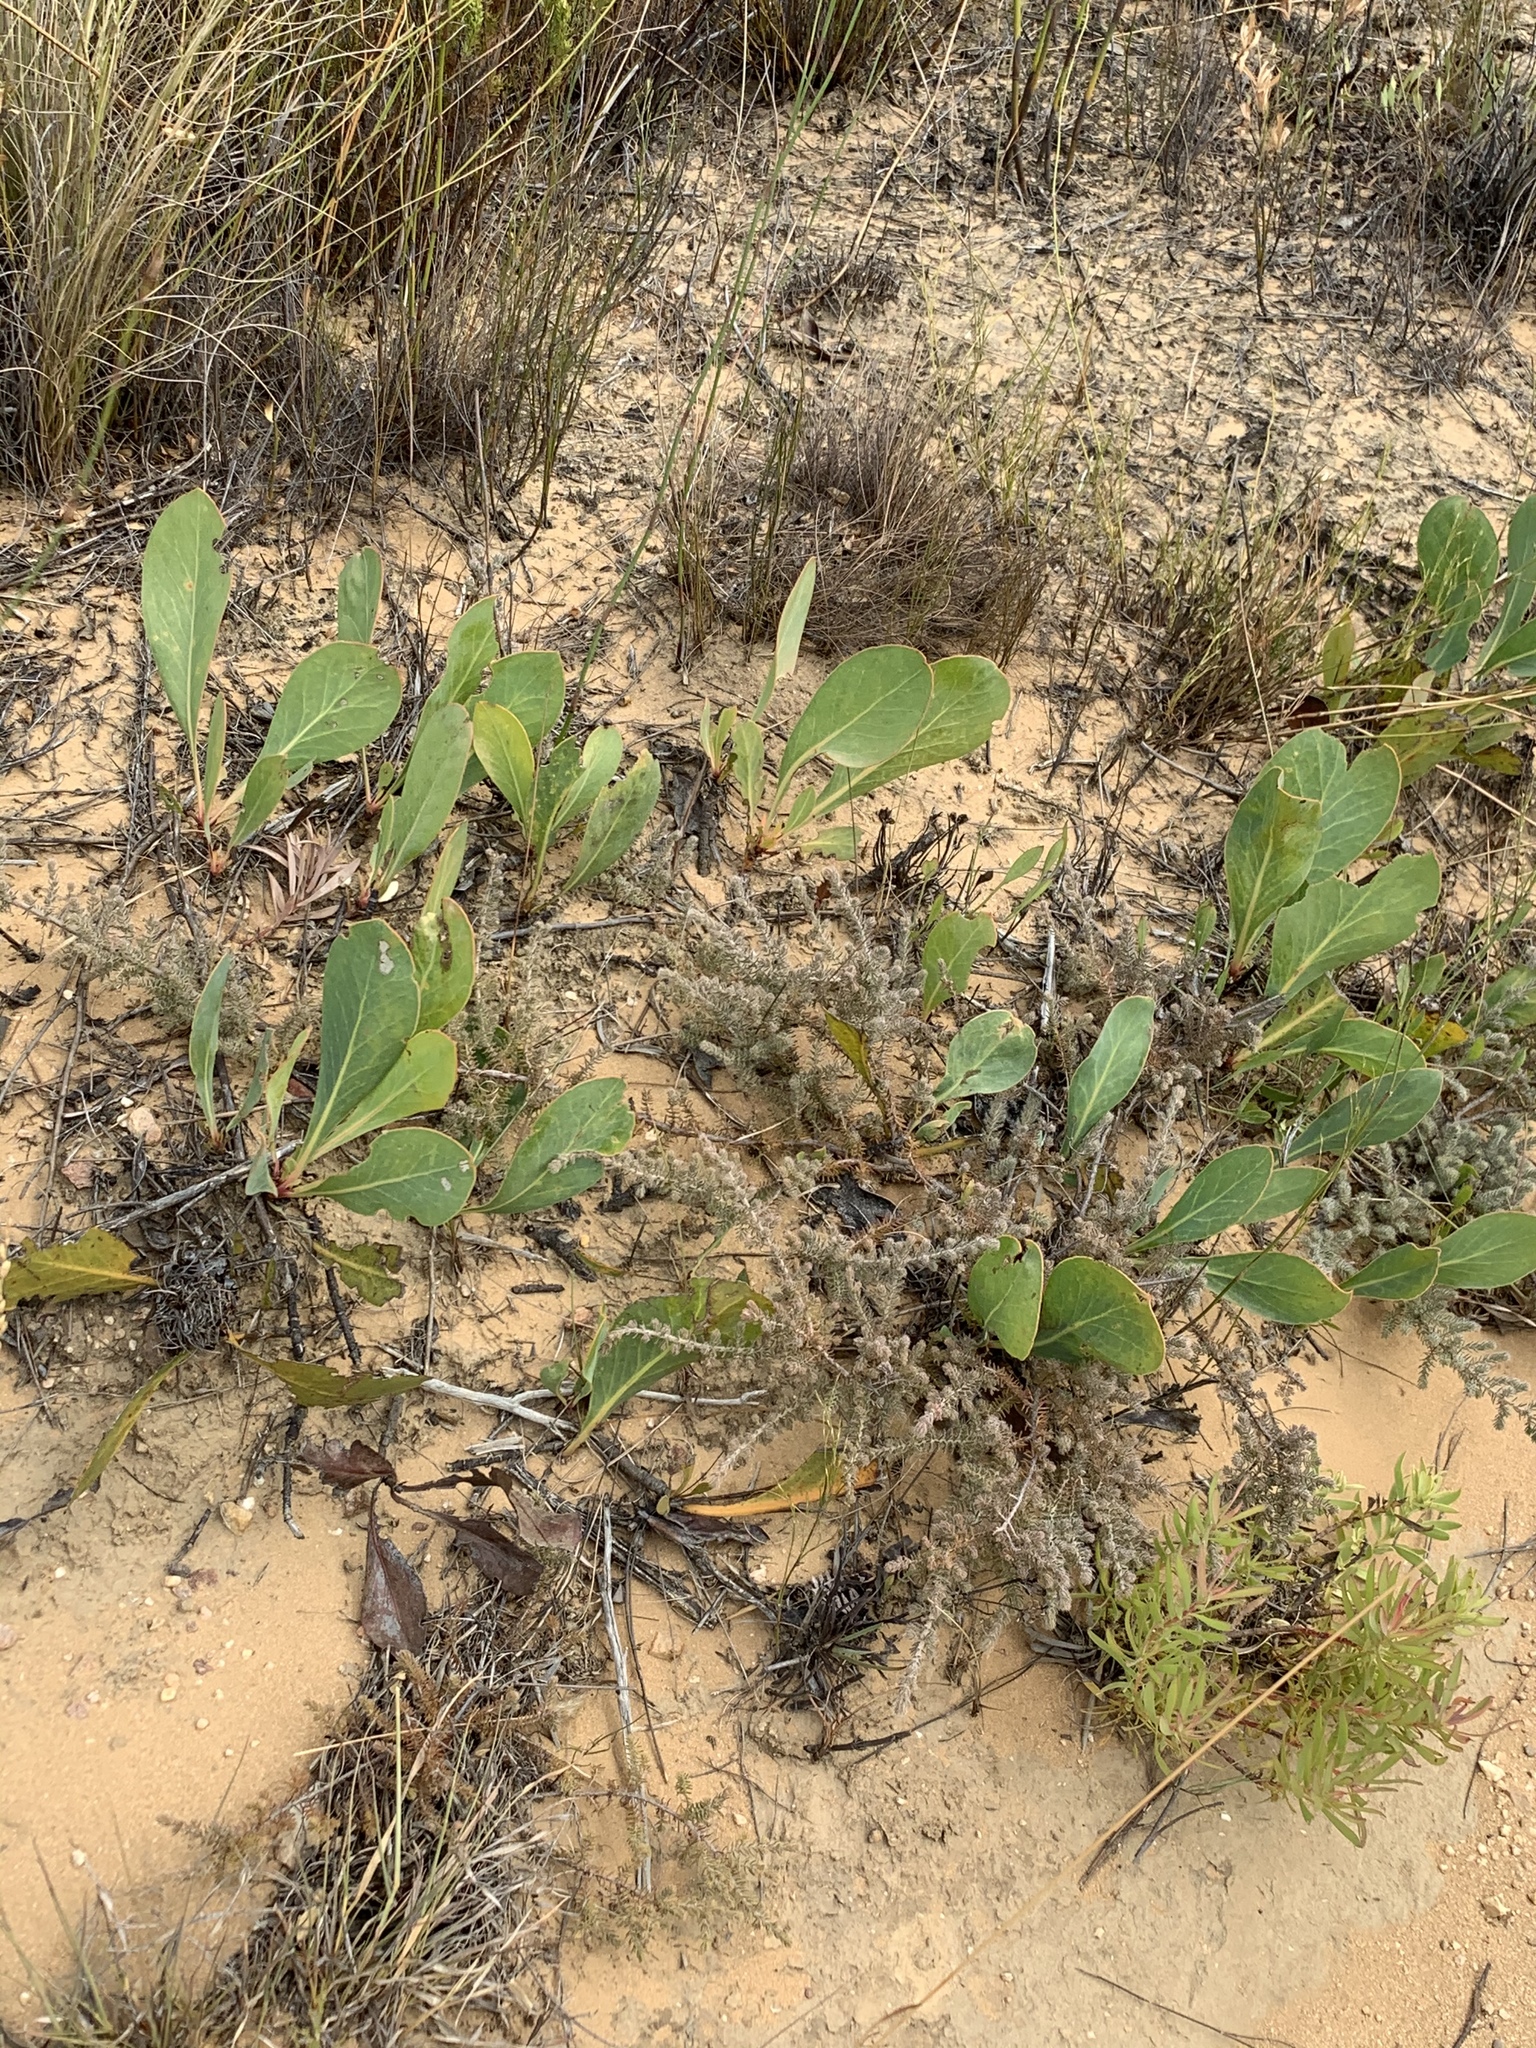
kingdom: Plantae
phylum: Tracheophyta
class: Magnoliopsida
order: Proteales
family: Proteaceae
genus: Protea
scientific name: Protea acaulos
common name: Common ground sugarbush
